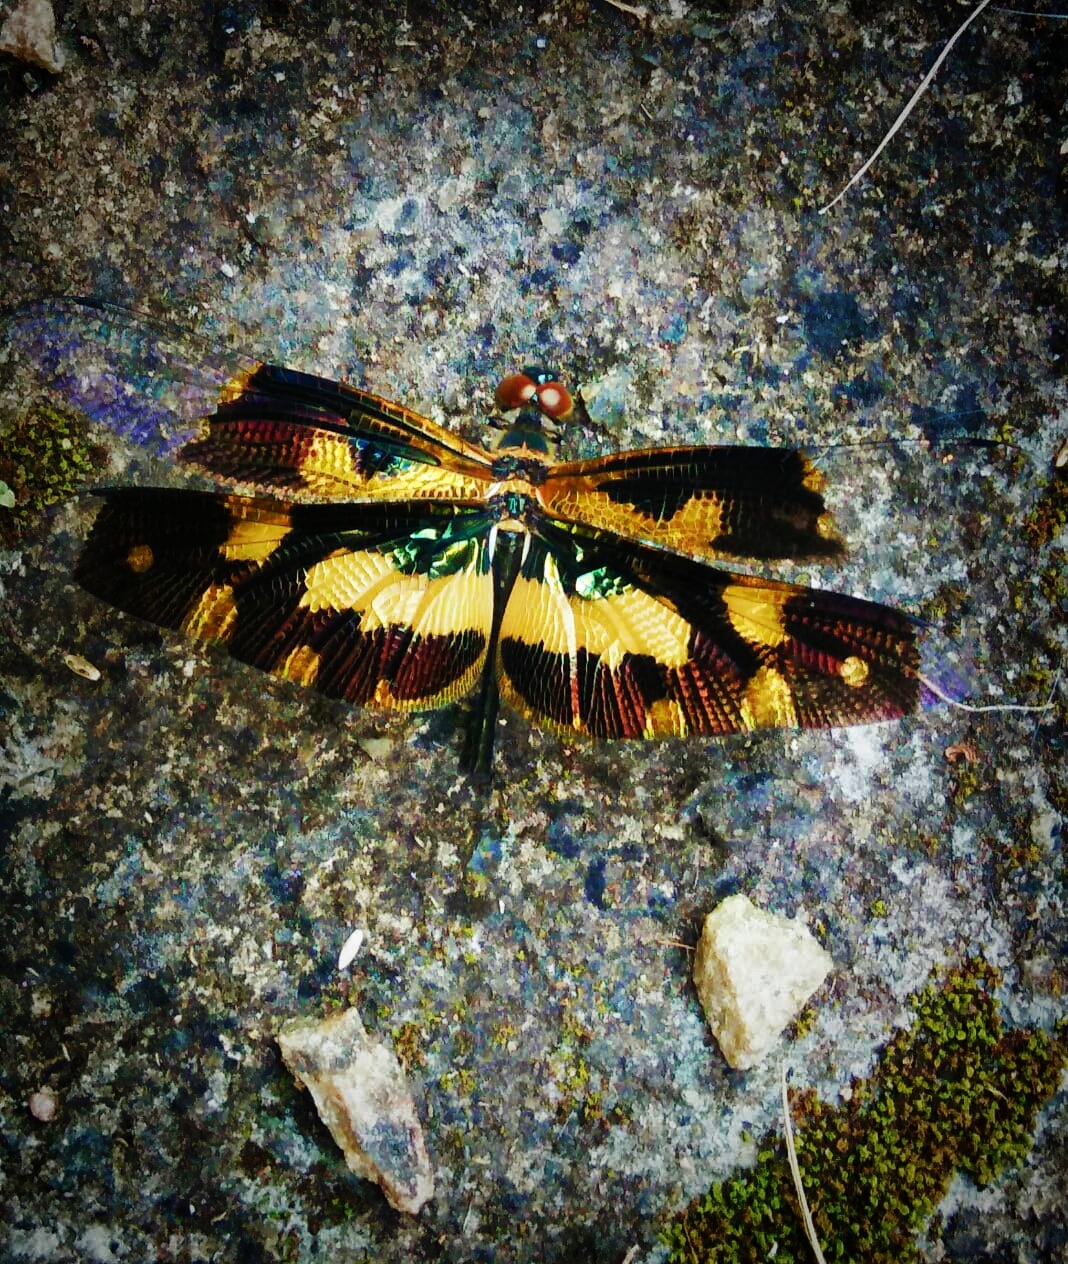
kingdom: Animalia
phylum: Arthropoda
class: Insecta
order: Odonata
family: Libellulidae
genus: Rhyothemis
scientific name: Rhyothemis variegata
